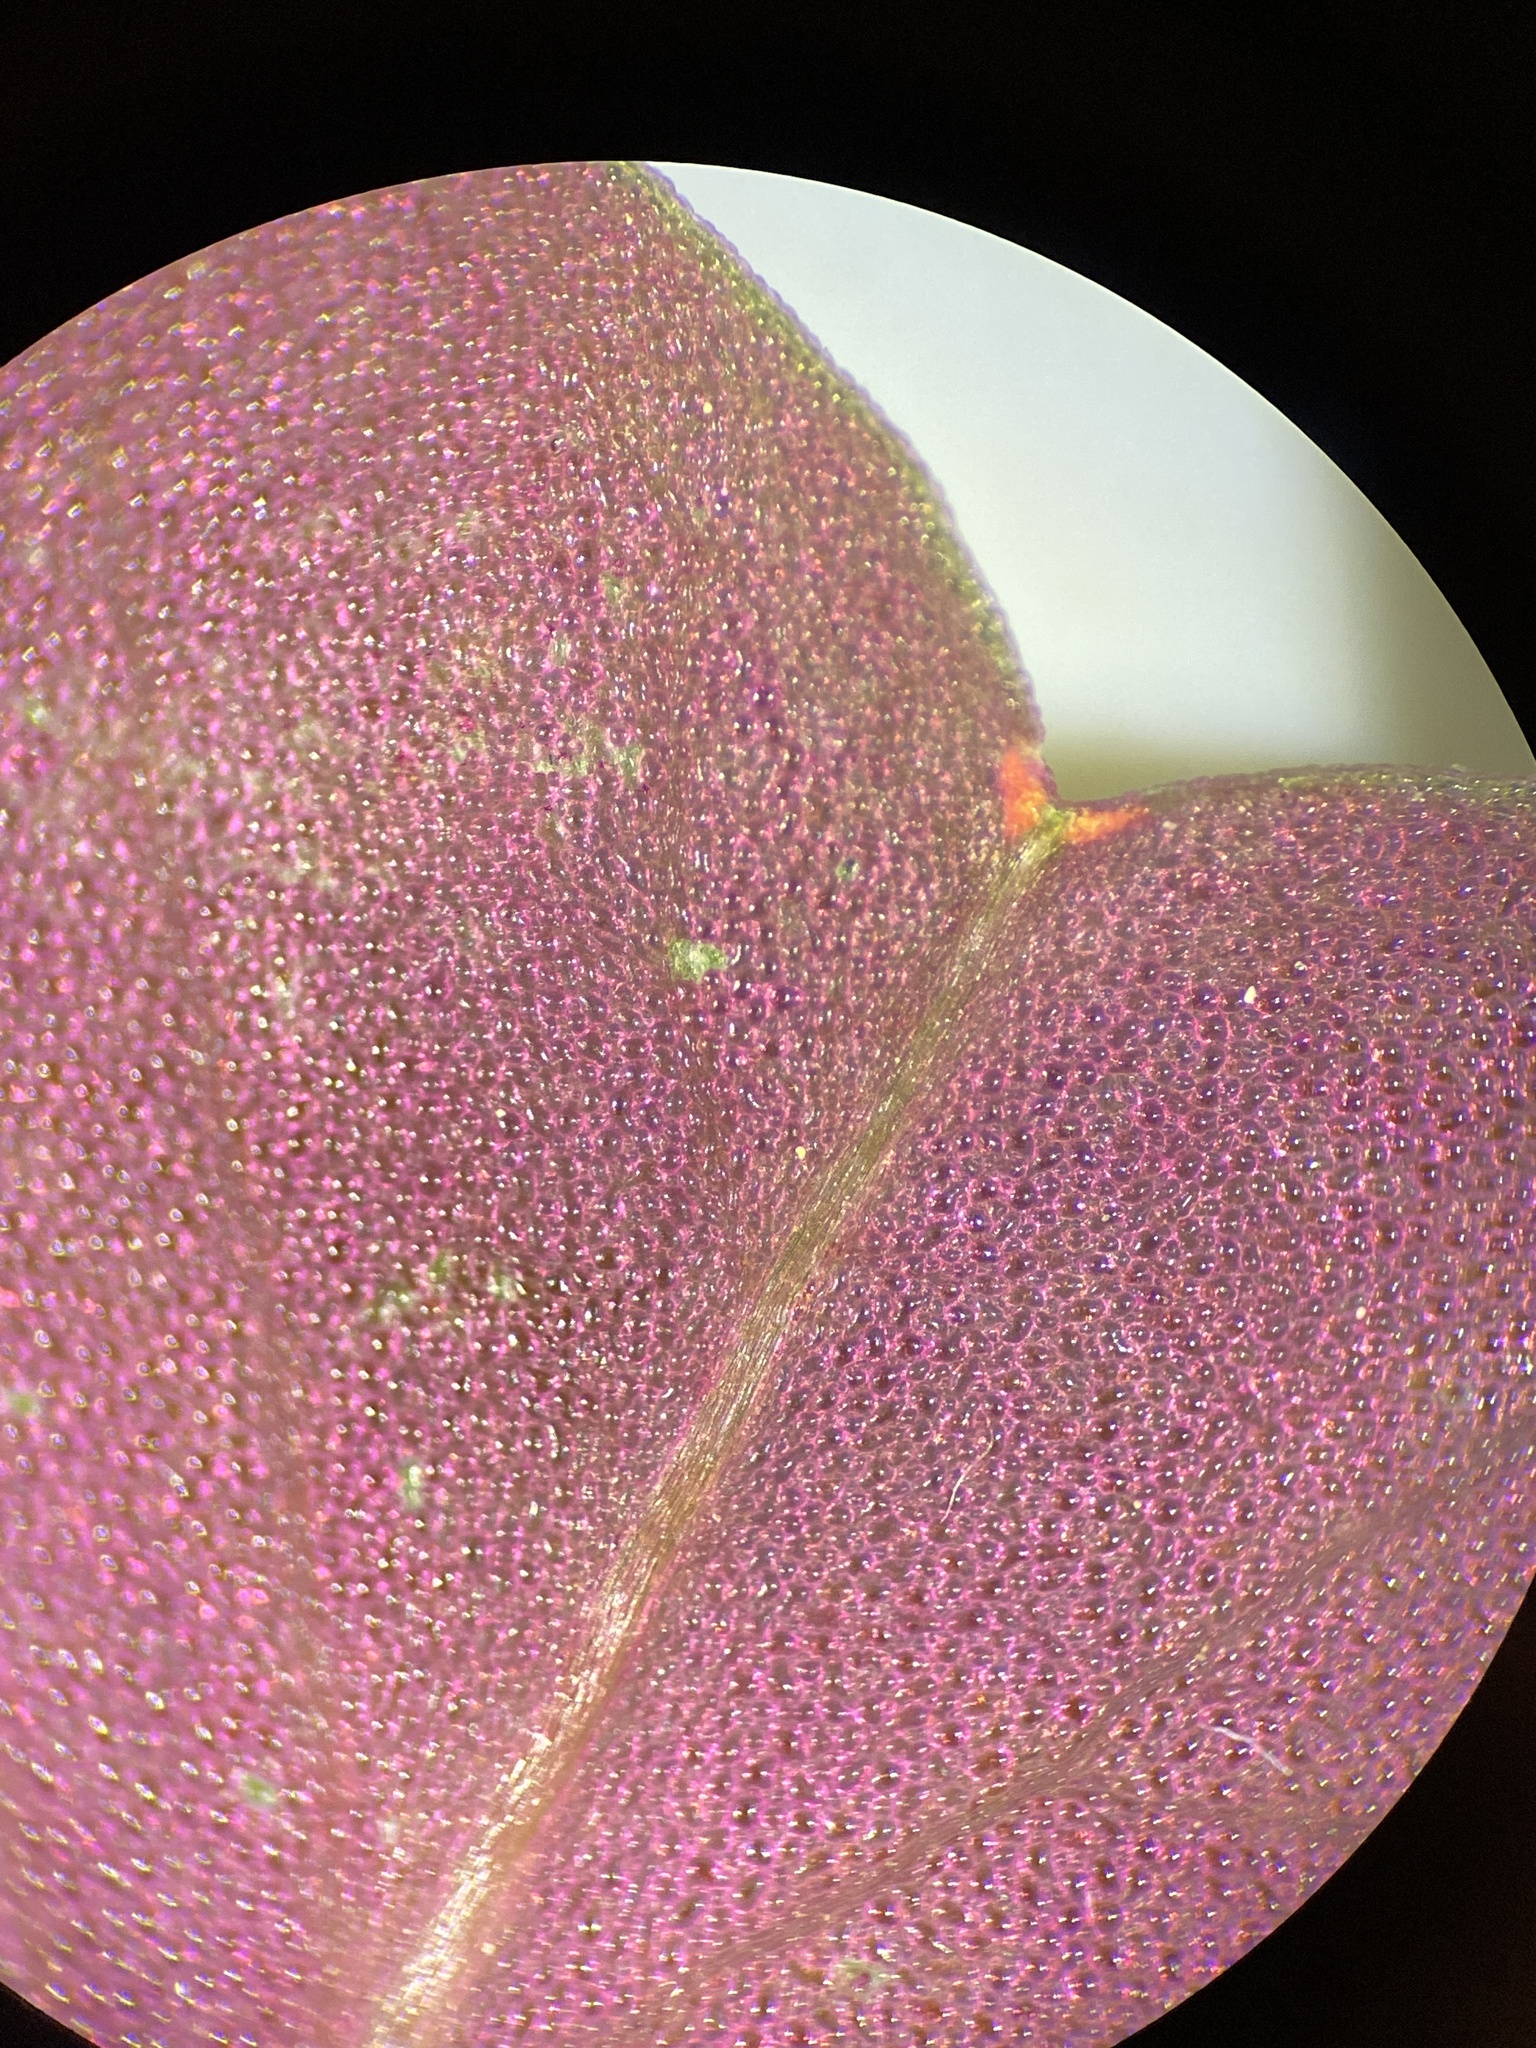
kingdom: Plantae
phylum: Tracheophyta
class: Magnoliopsida
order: Oxalidales
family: Oxalidaceae
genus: Oxalis
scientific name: Oxalis violacea
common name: Violet wood-sorrel
